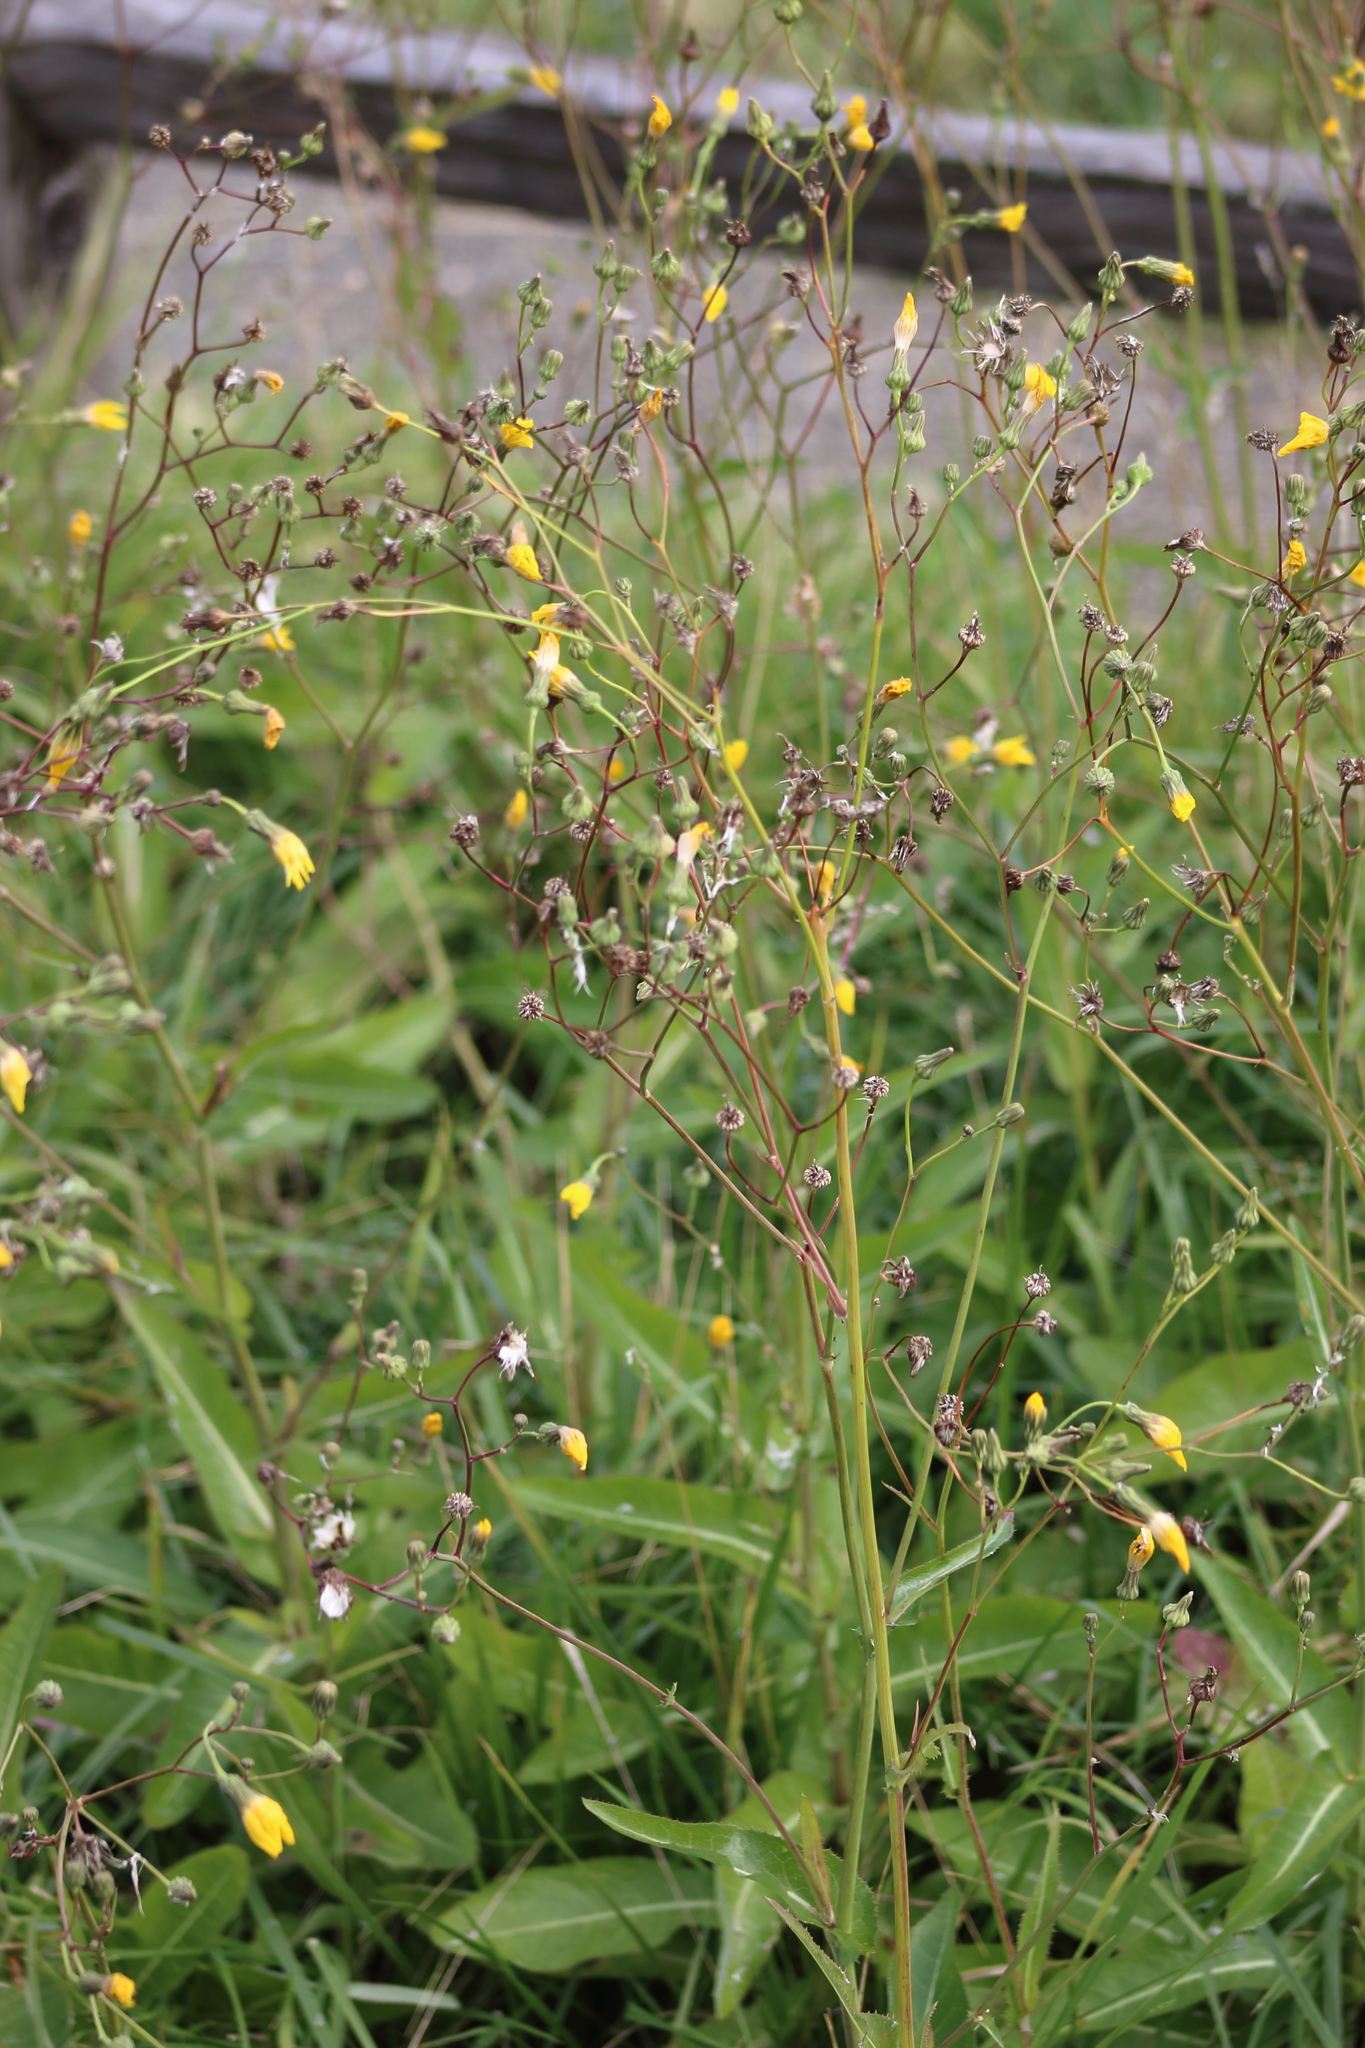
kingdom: Plantae
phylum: Tracheophyta
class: Magnoliopsida
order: Asterales
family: Asteraceae
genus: Sonchus
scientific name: Sonchus arvensis
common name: Perennial sow-thistle
